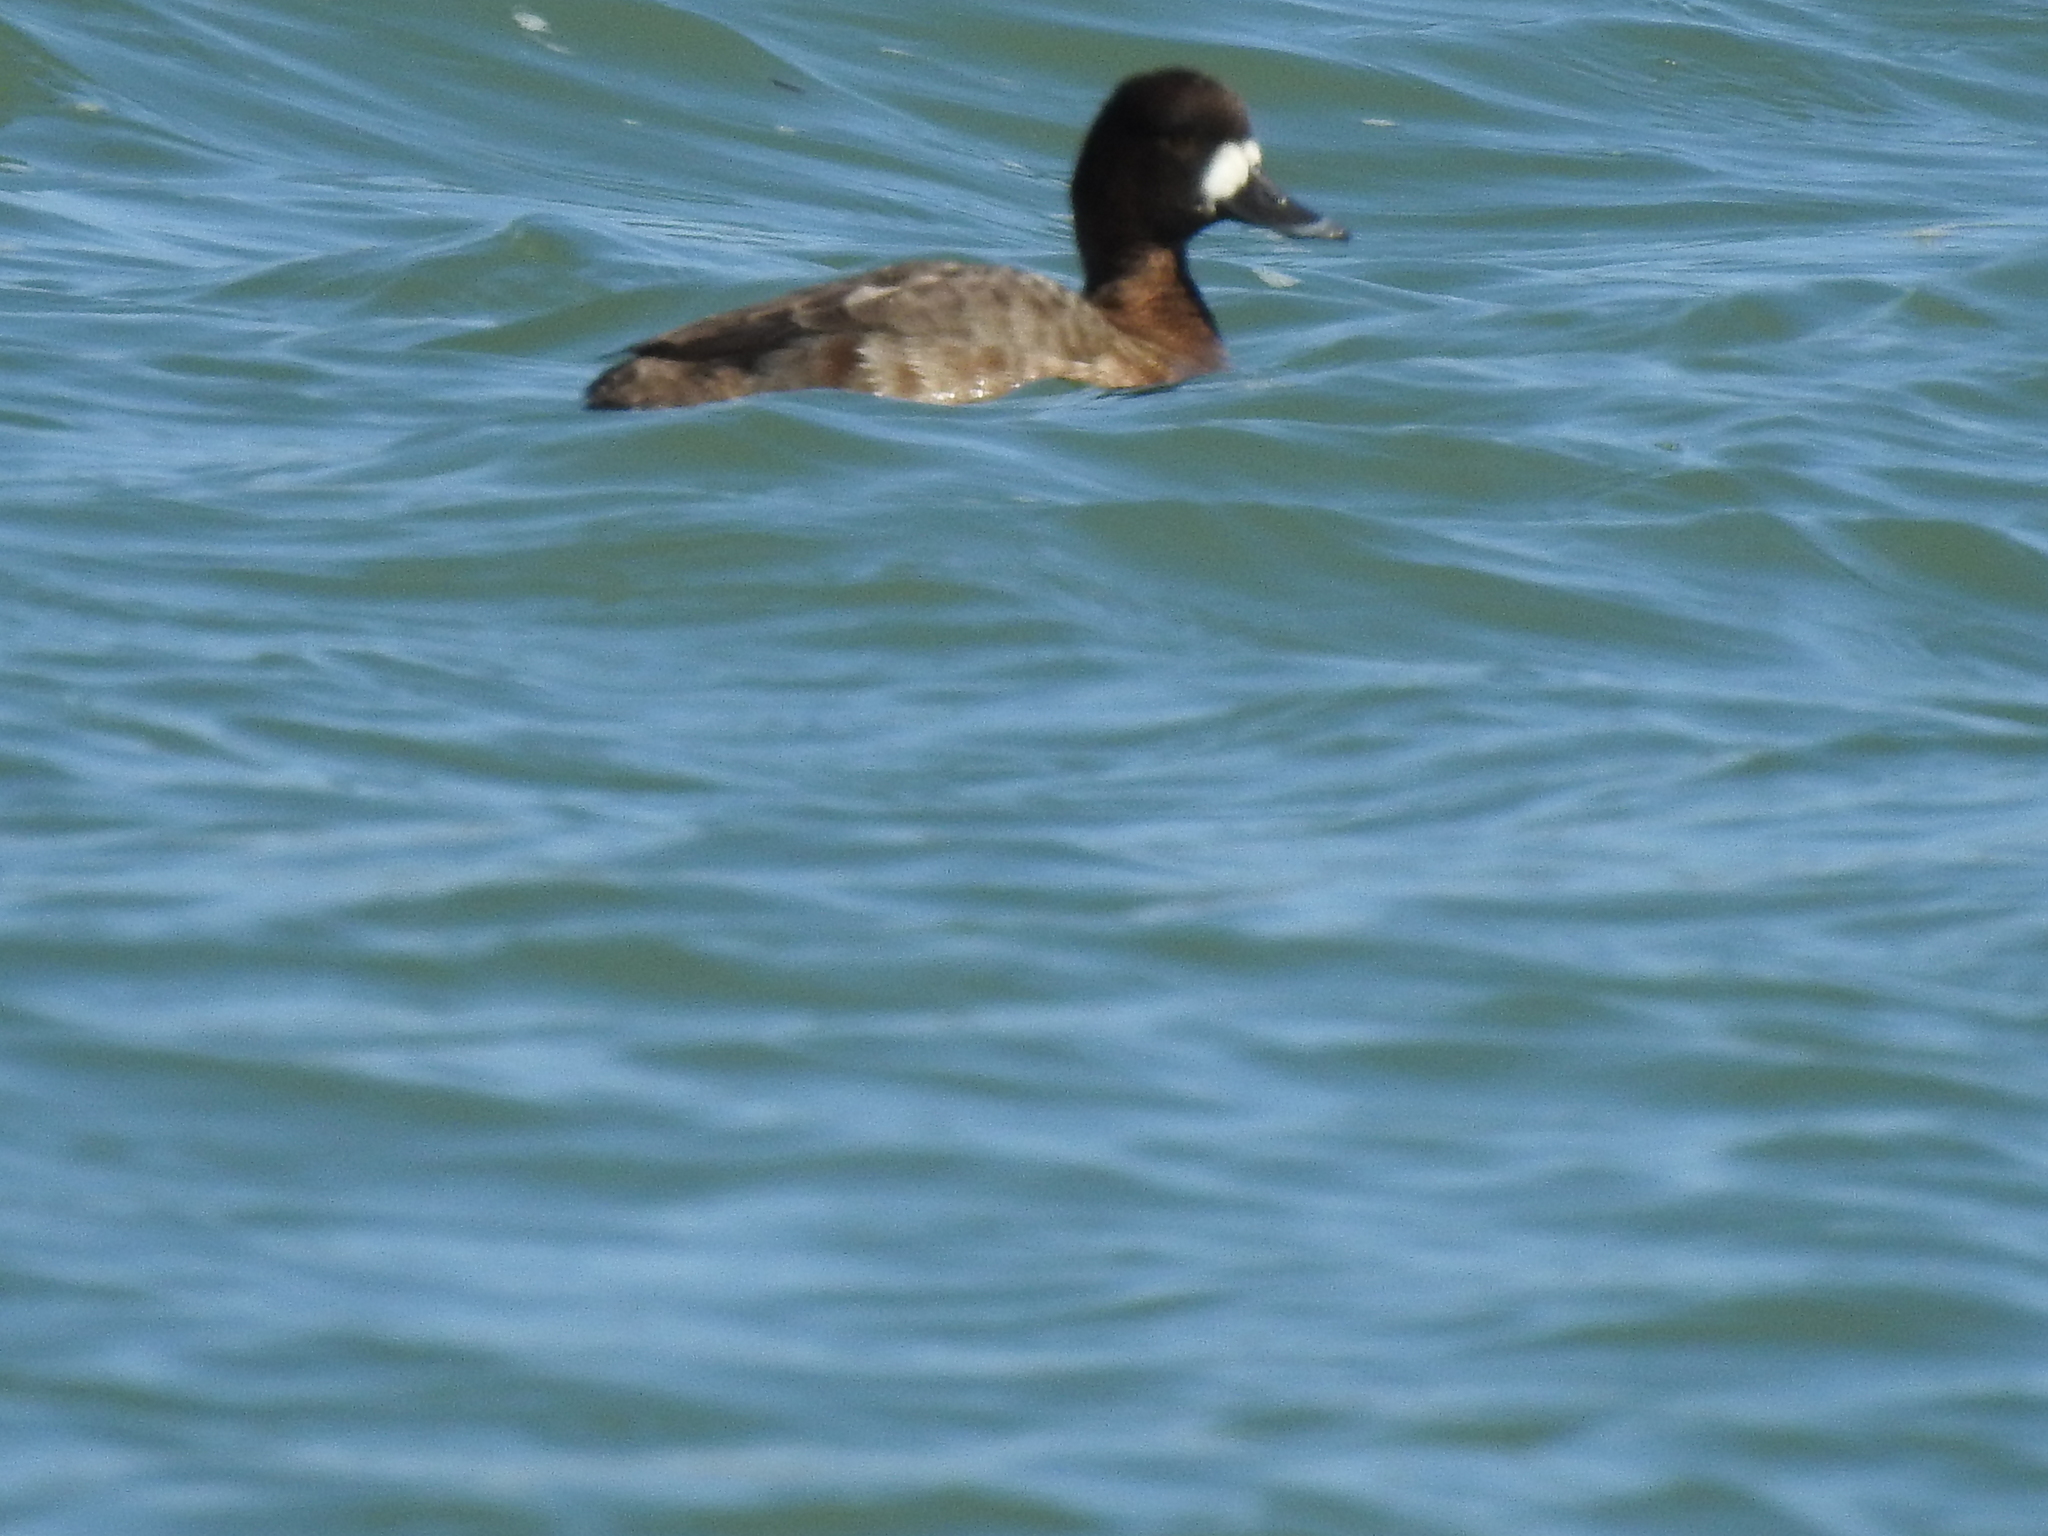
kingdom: Animalia
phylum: Chordata
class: Aves
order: Anseriformes
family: Anatidae
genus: Aythya
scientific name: Aythya marila
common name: Greater scaup
